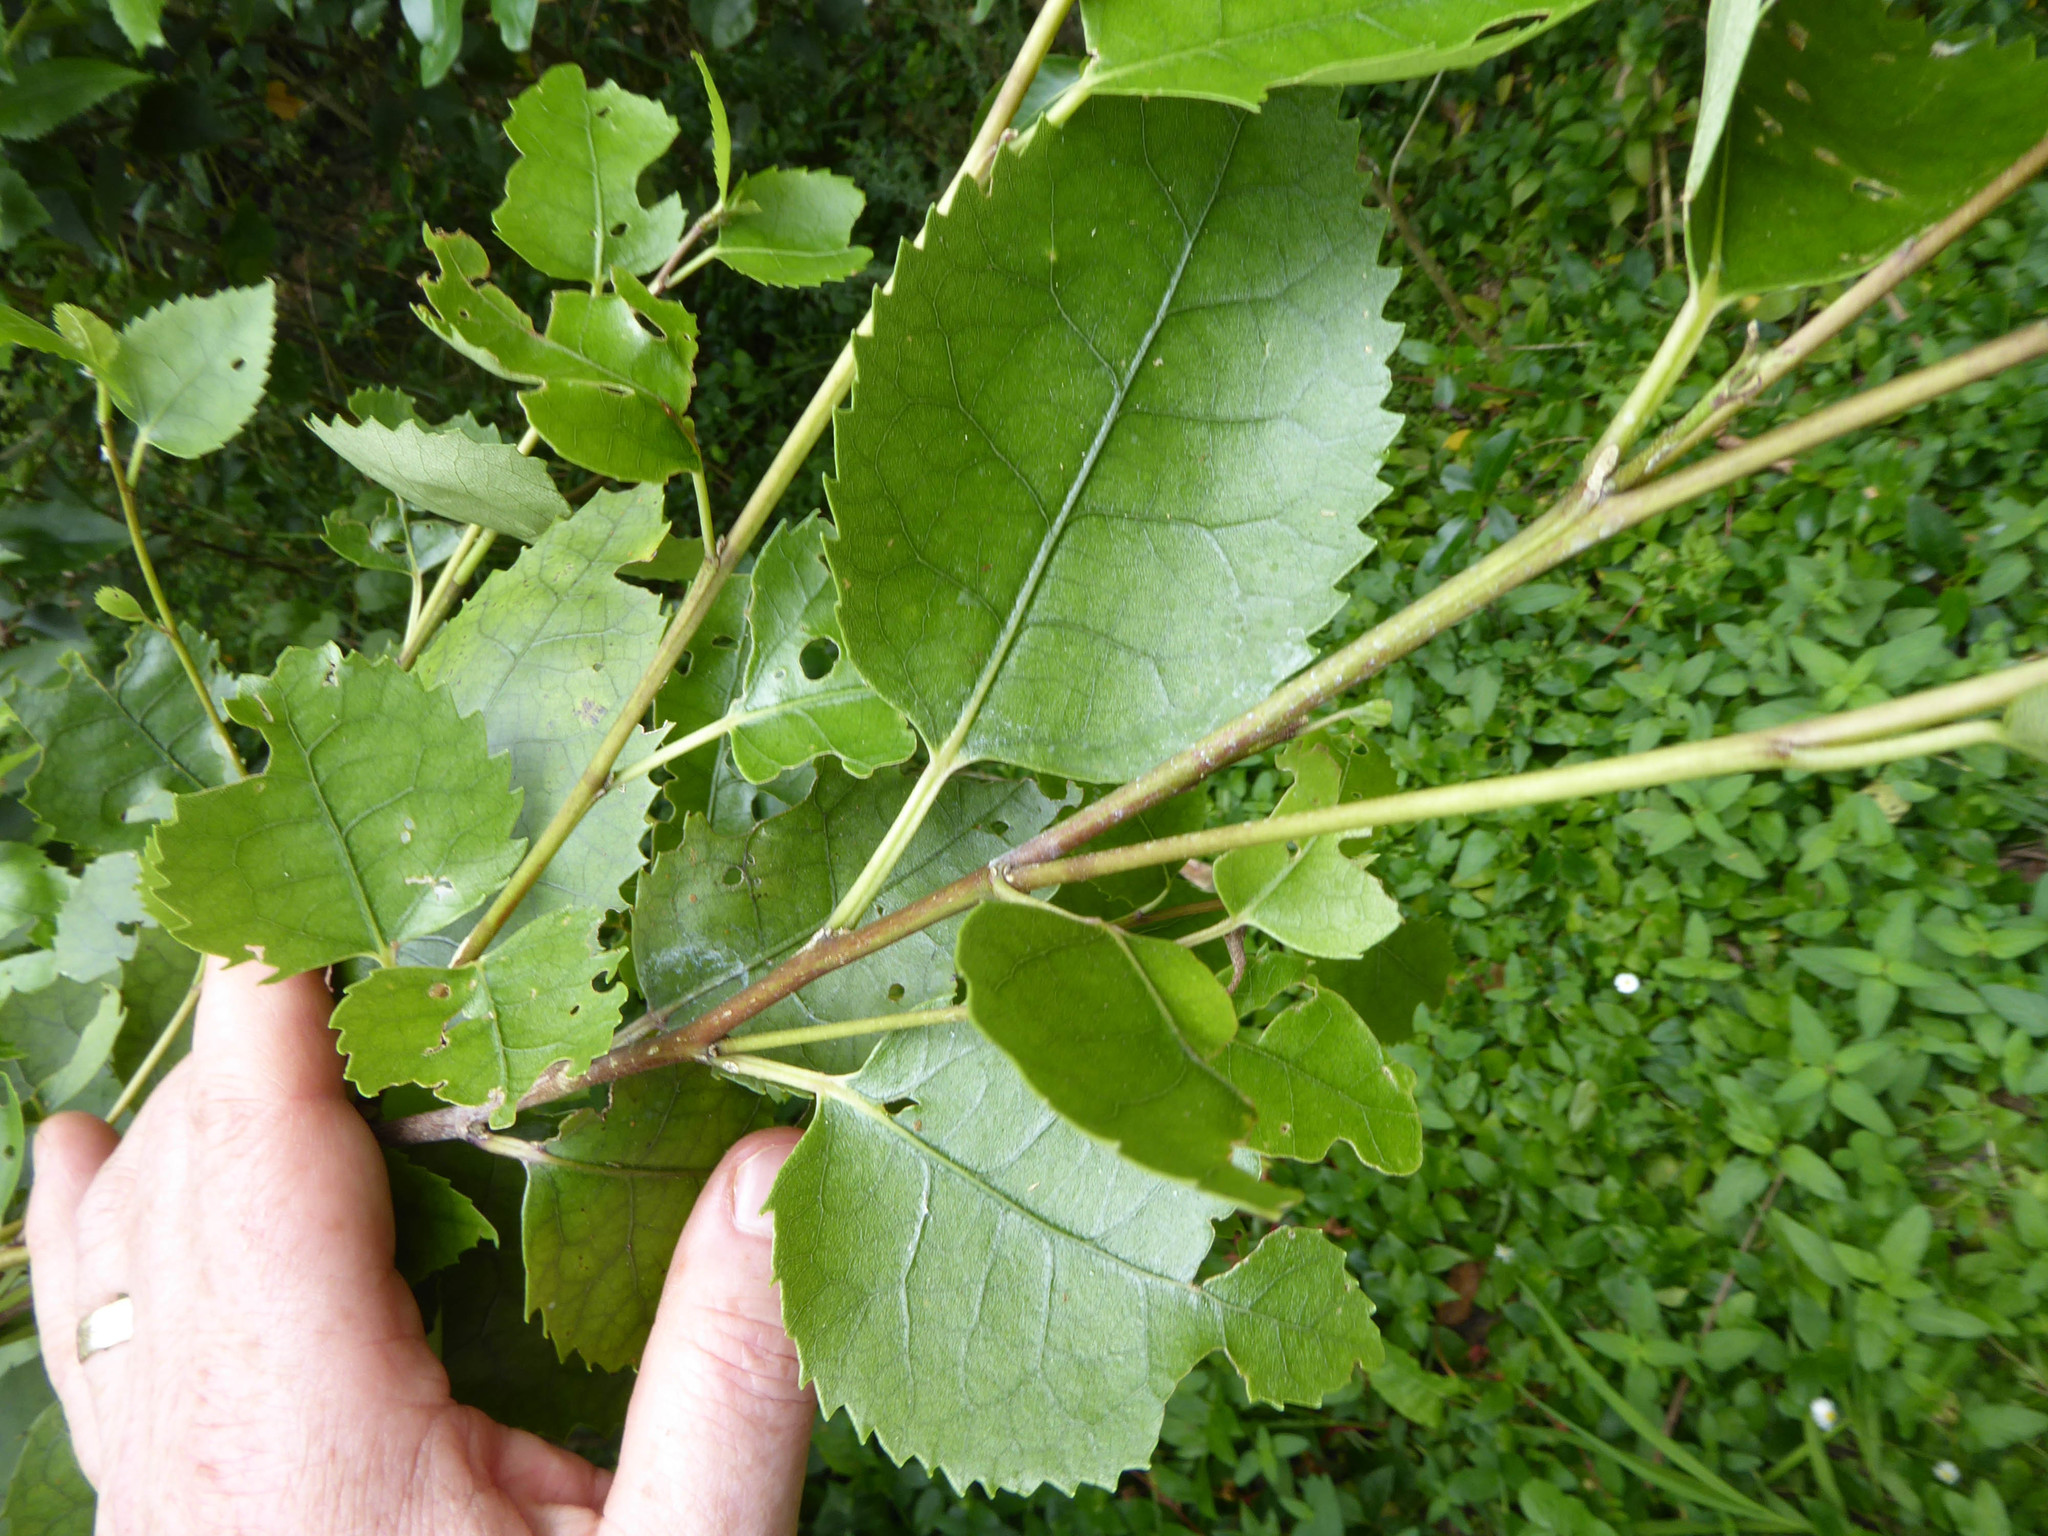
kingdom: Plantae
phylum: Tracheophyta
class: Magnoliopsida
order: Malvales
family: Malvaceae
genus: Hoheria
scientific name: Hoheria populnea
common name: Lacebark
